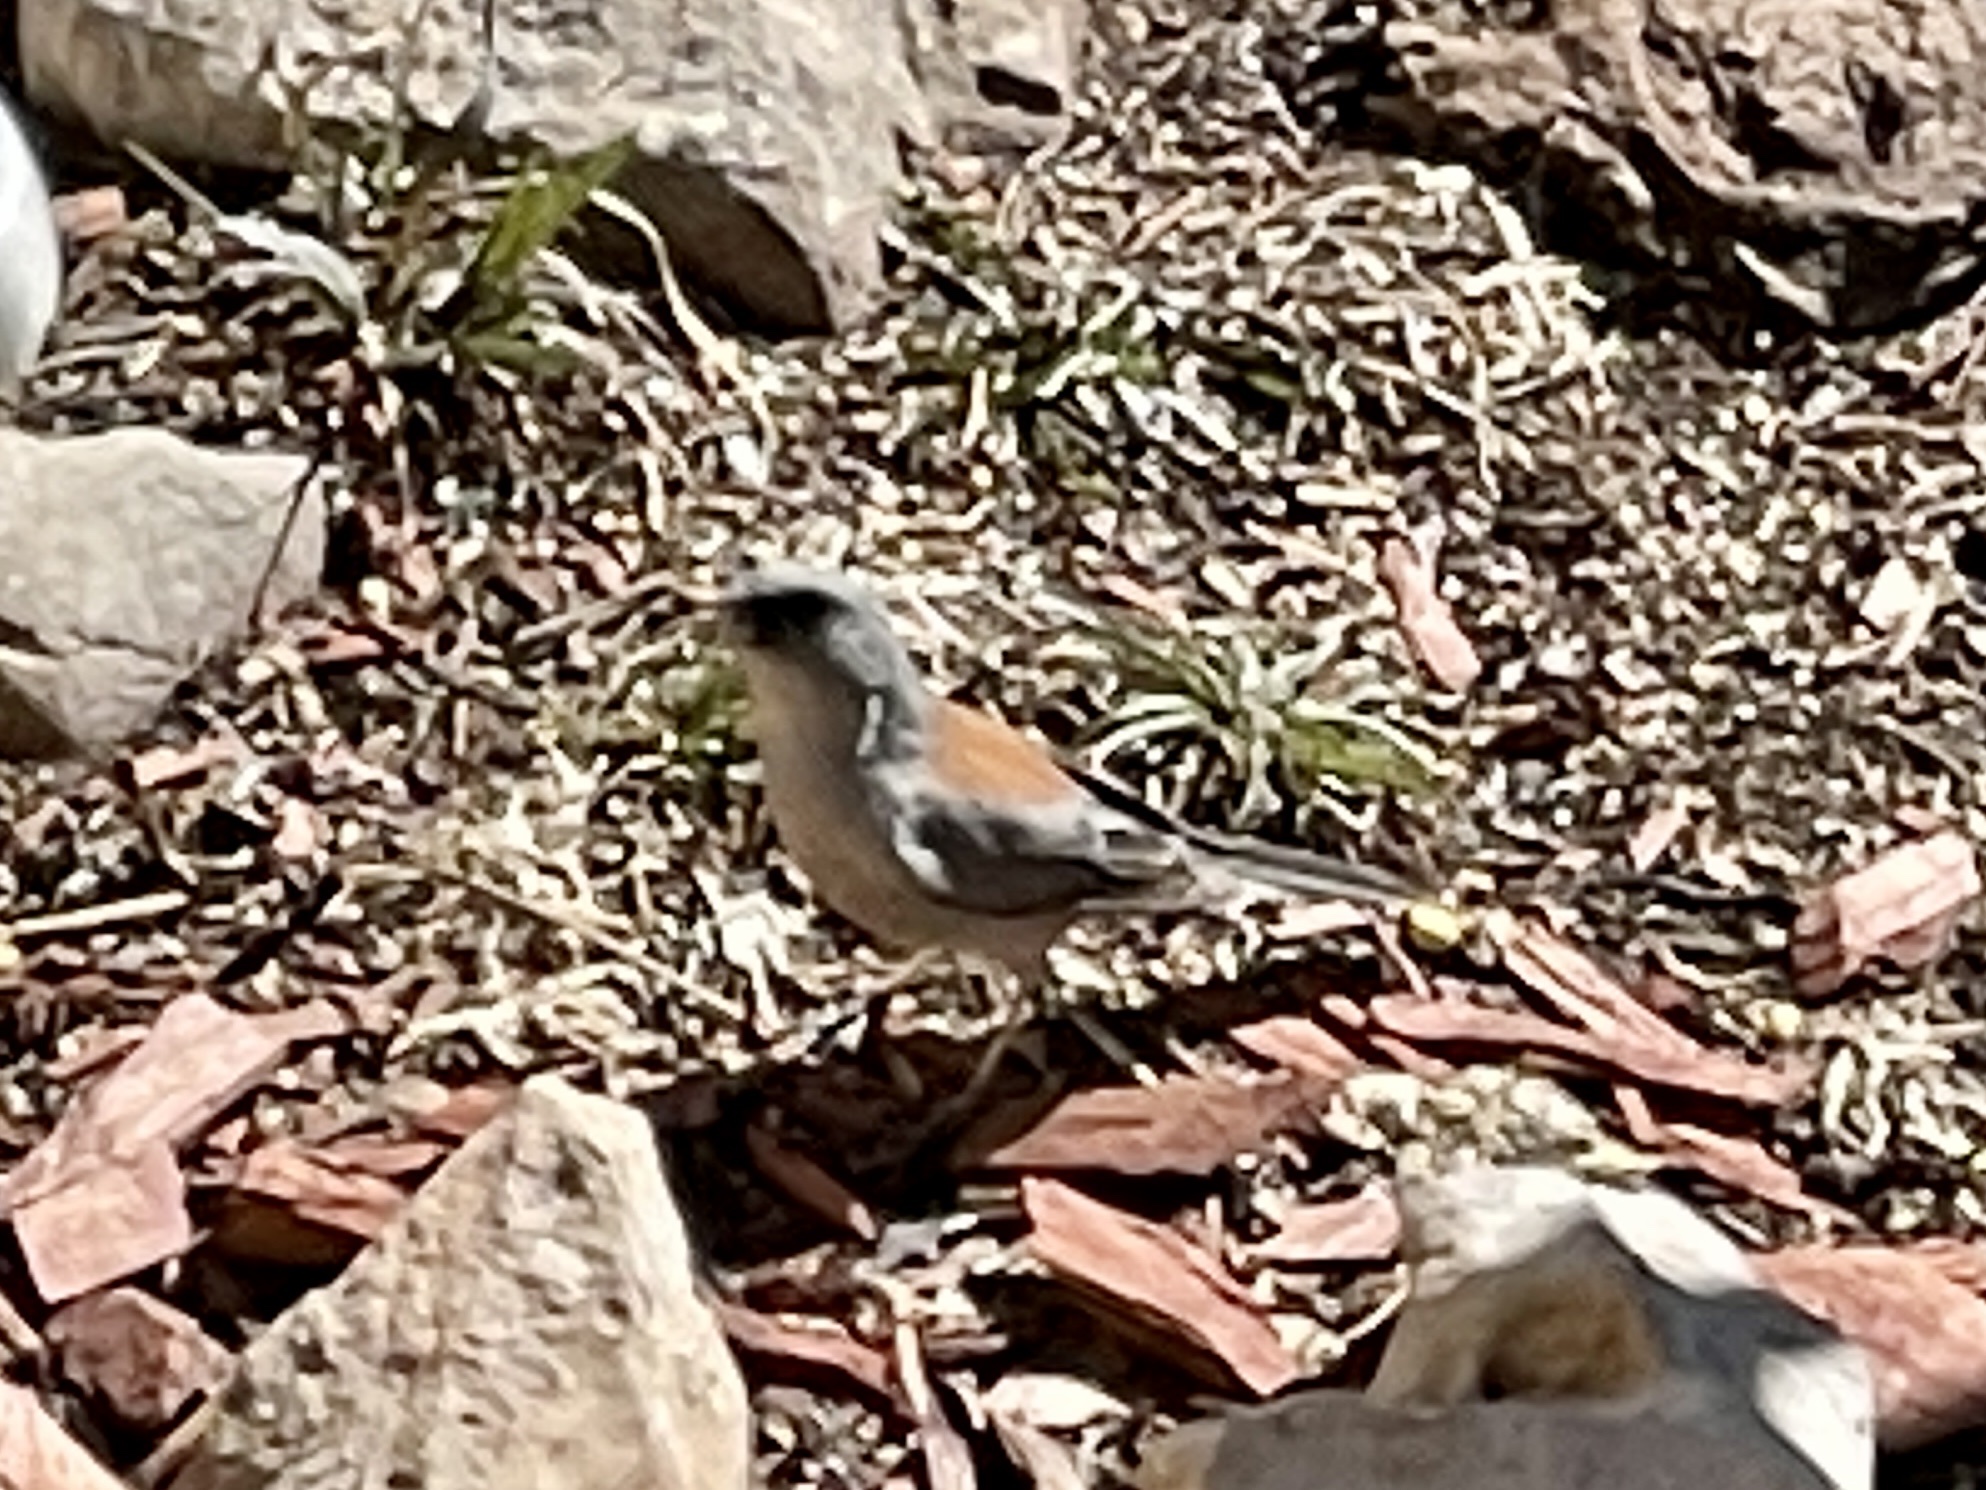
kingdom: Animalia
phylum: Chordata
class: Aves
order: Passeriformes
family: Passerellidae
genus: Junco
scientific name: Junco hyemalis
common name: Dark-eyed junco
